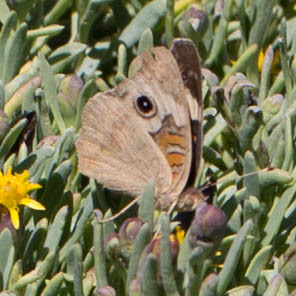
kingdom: Animalia
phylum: Arthropoda
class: Insecta
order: Lepidoptera
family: Nymphalidae
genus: Junonia
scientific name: Junonia grisea
